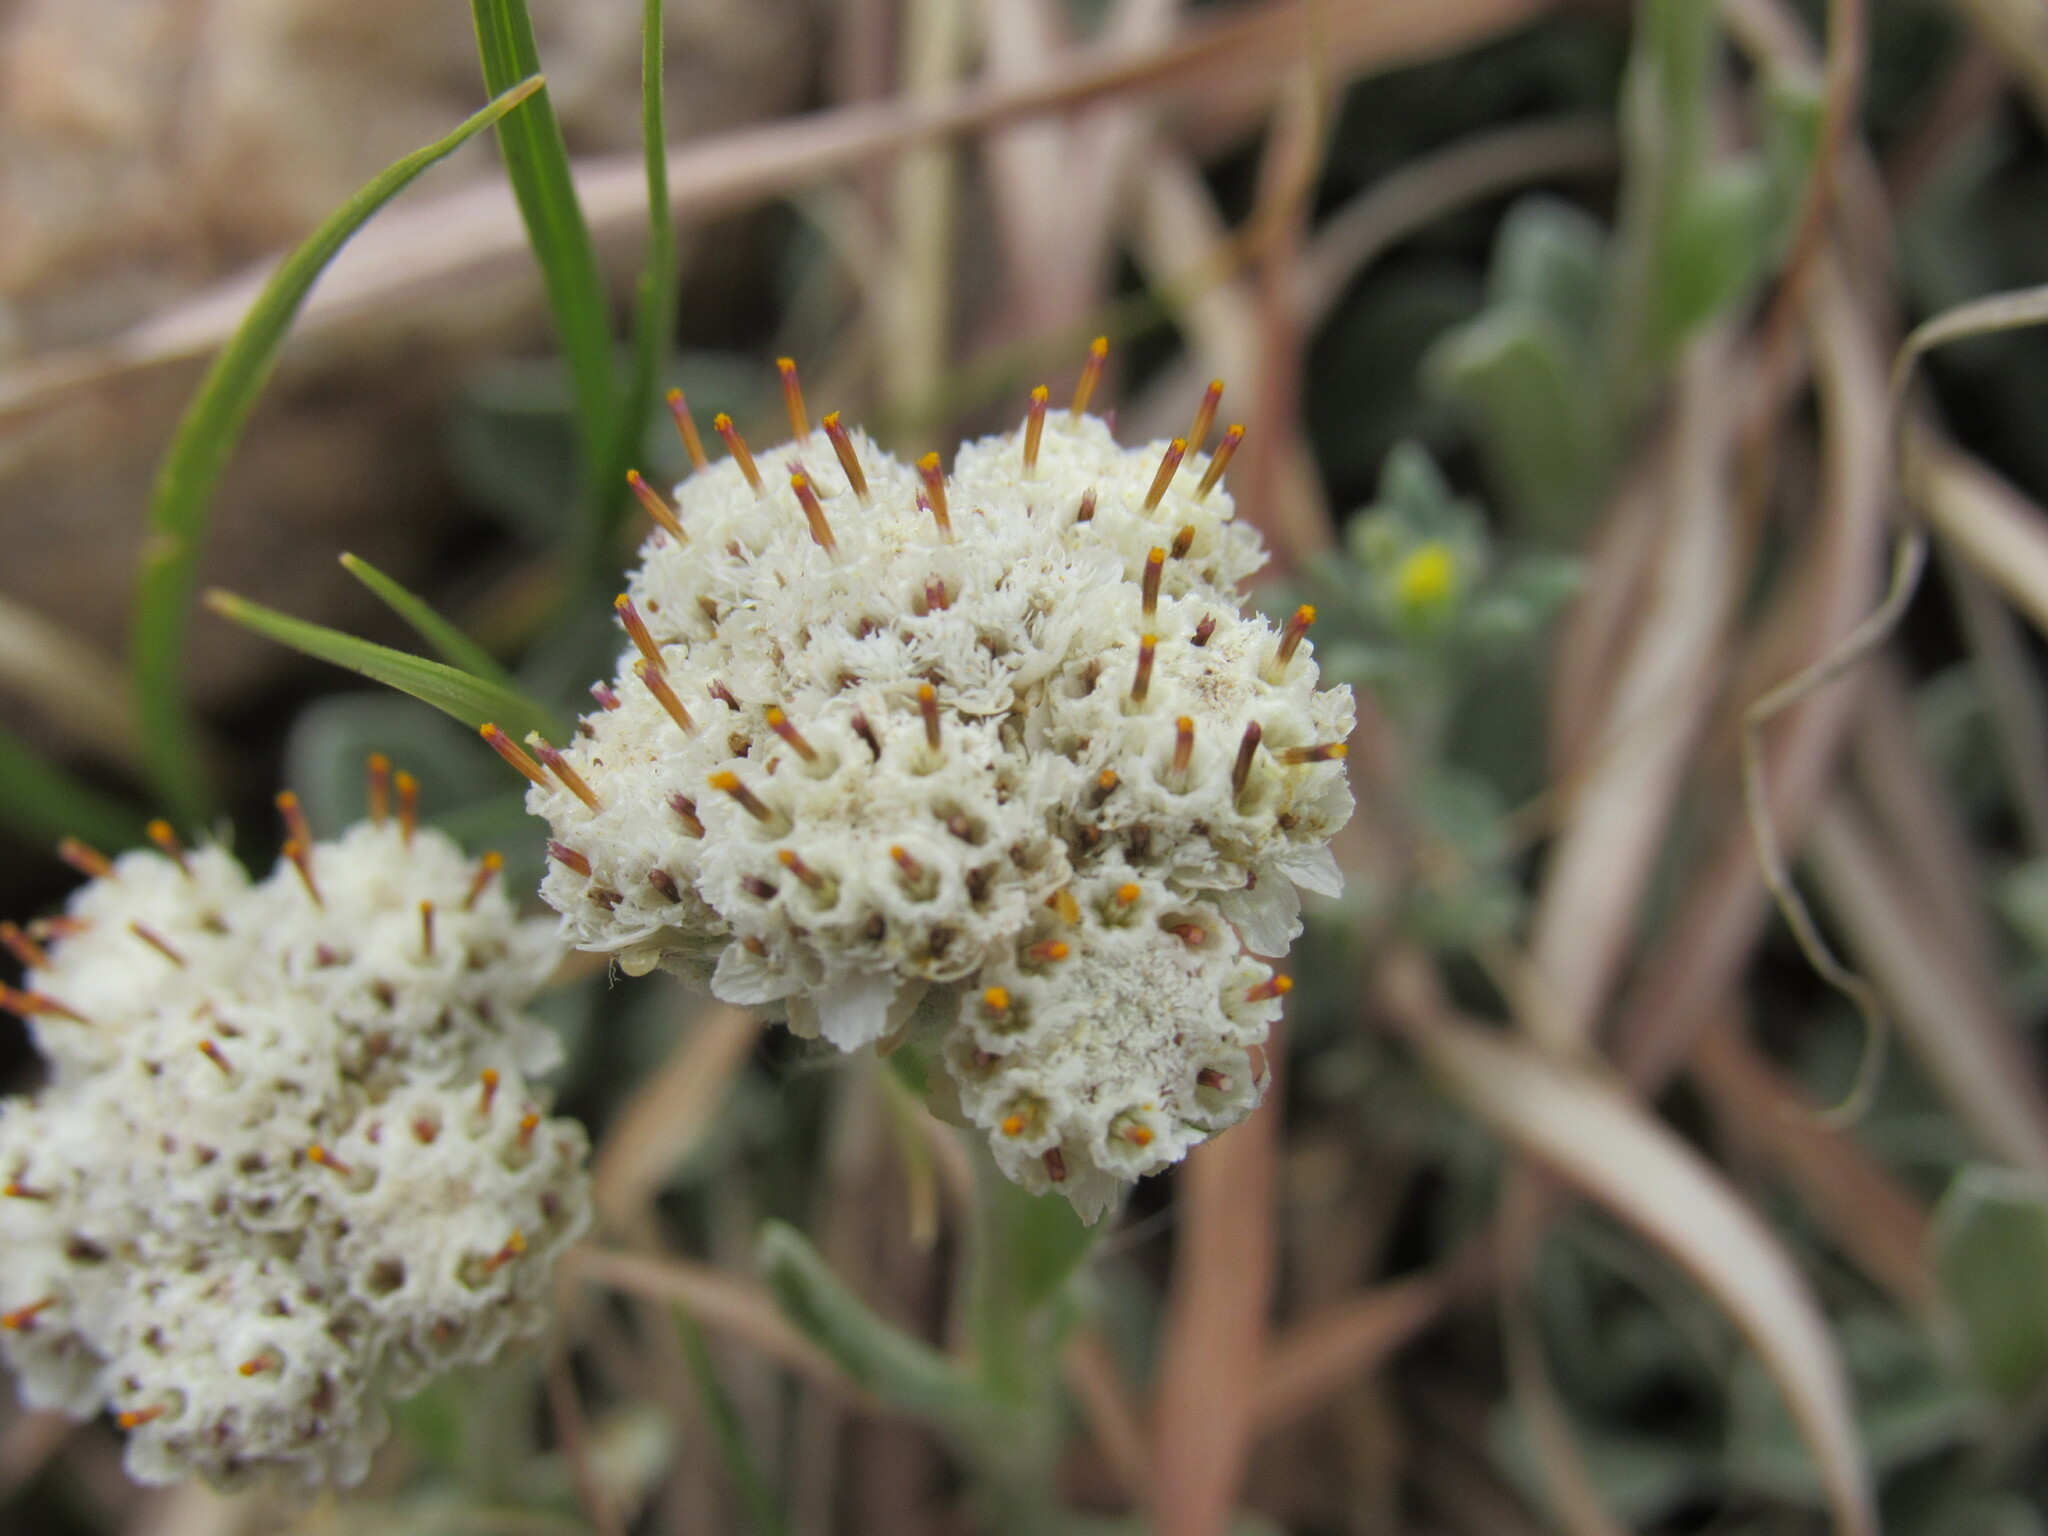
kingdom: Plantae
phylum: Tracheophyta
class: Magnoliopsida
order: Asterales
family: Asteraceae
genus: Antennaria
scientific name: Antennaria parvifolia
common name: Nuttall's pussytoes
